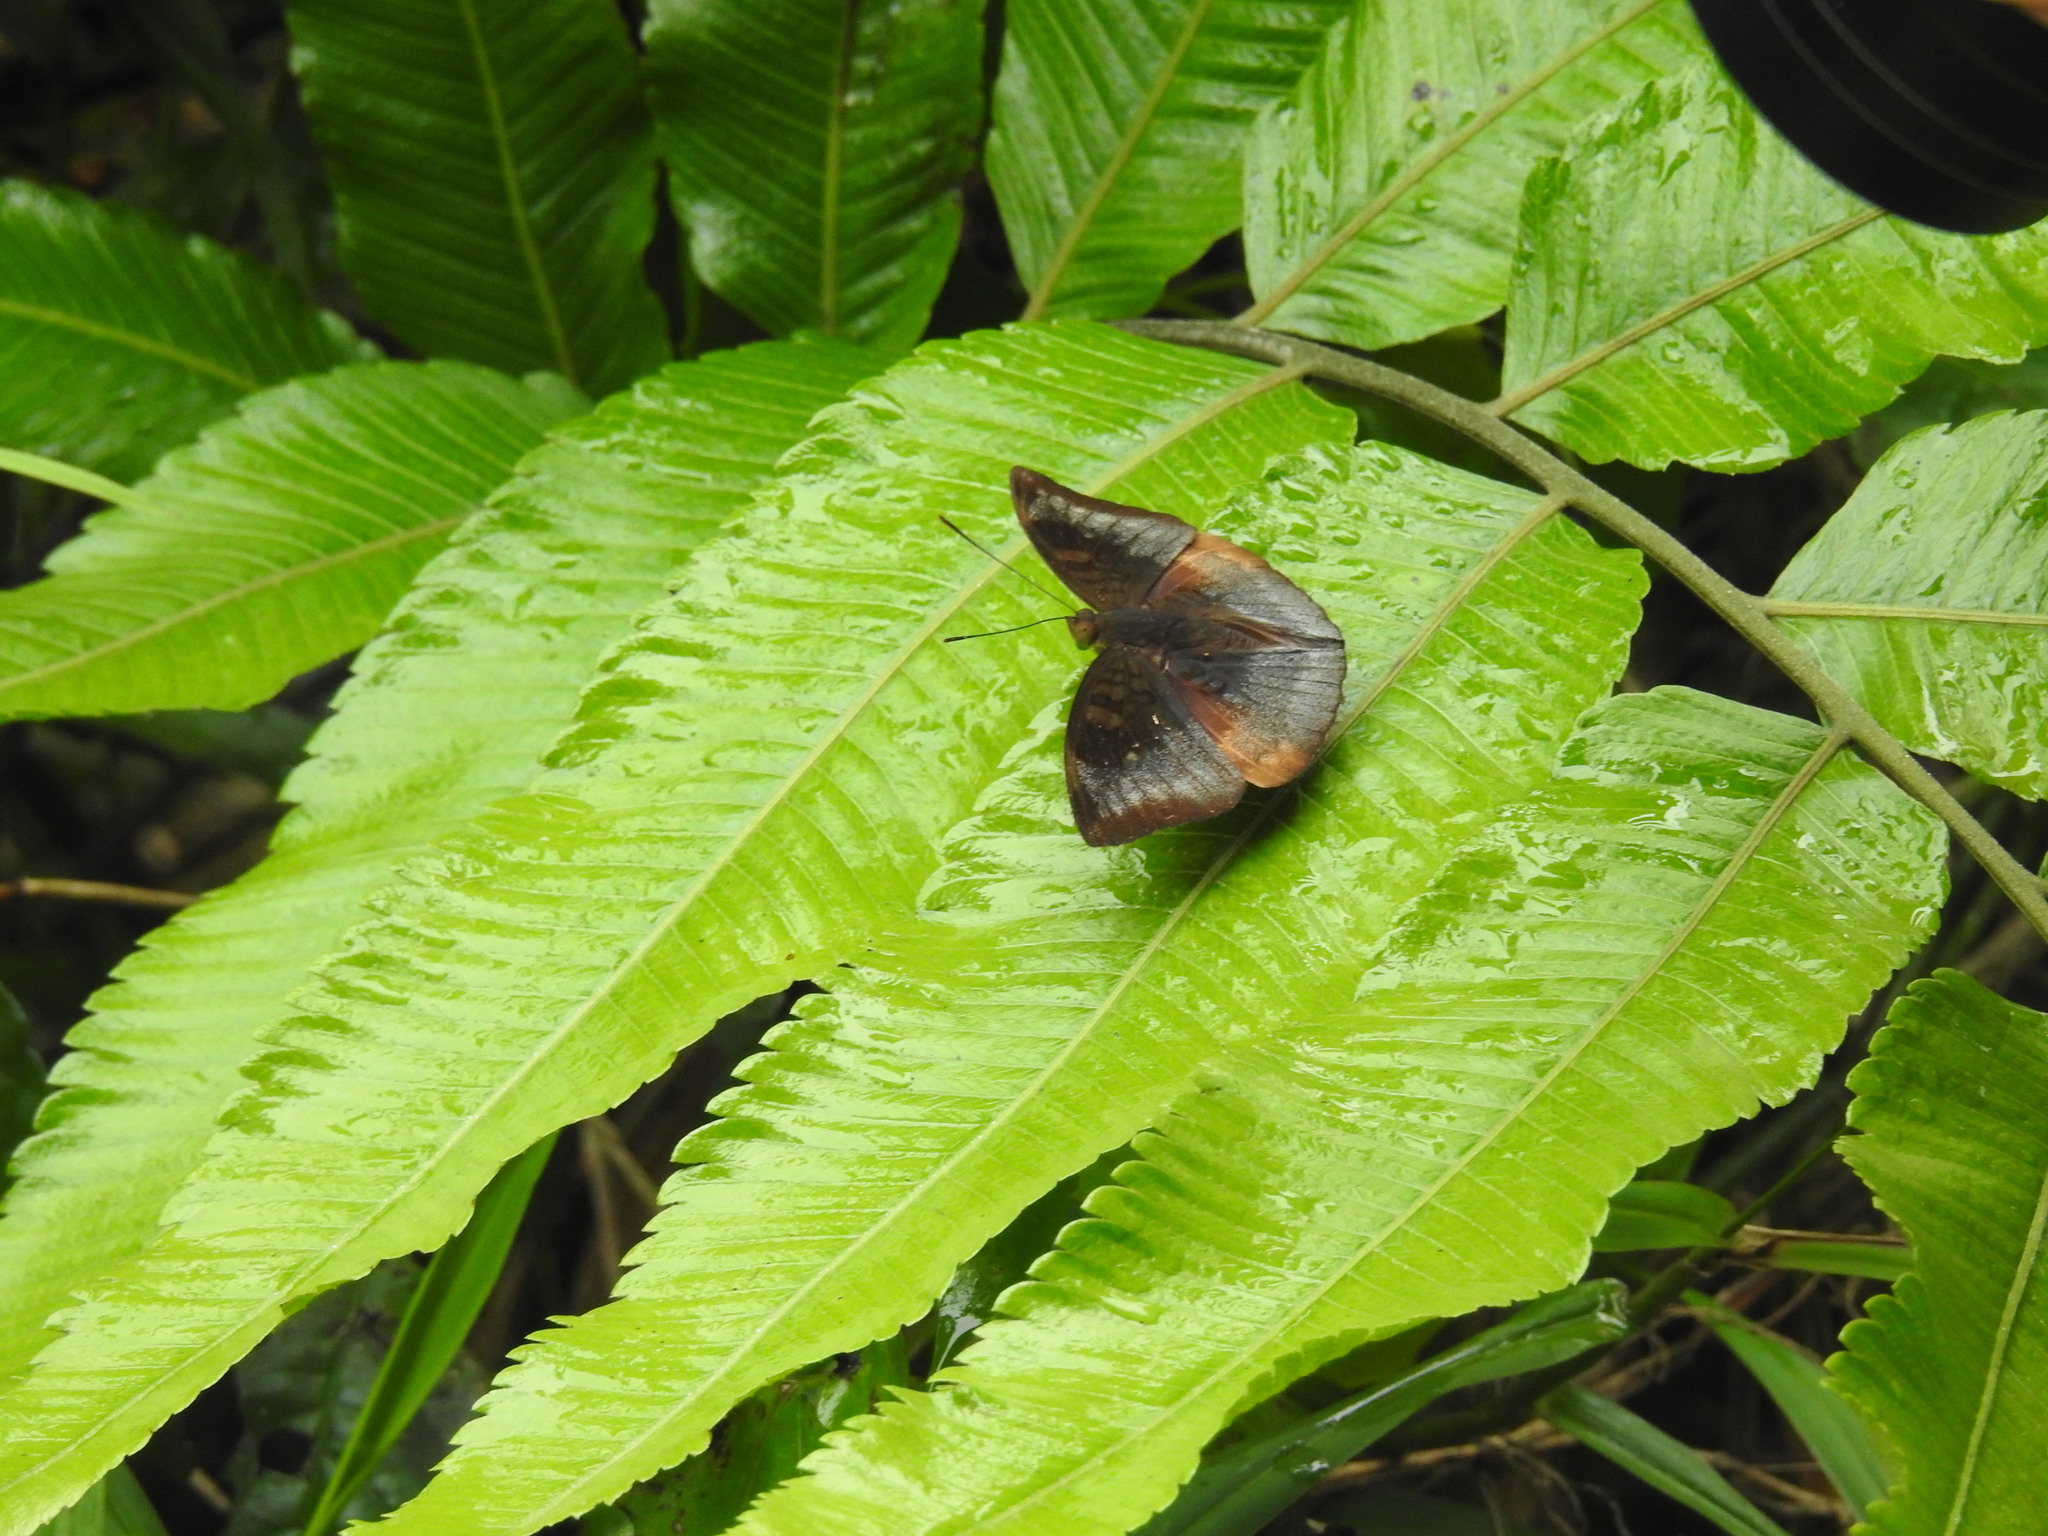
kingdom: Animalia
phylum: Arthropoda
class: Insecta
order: Lepidoptera
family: Nymphalidae
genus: Euthalia
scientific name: Euthalia monina
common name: Powdered baron
